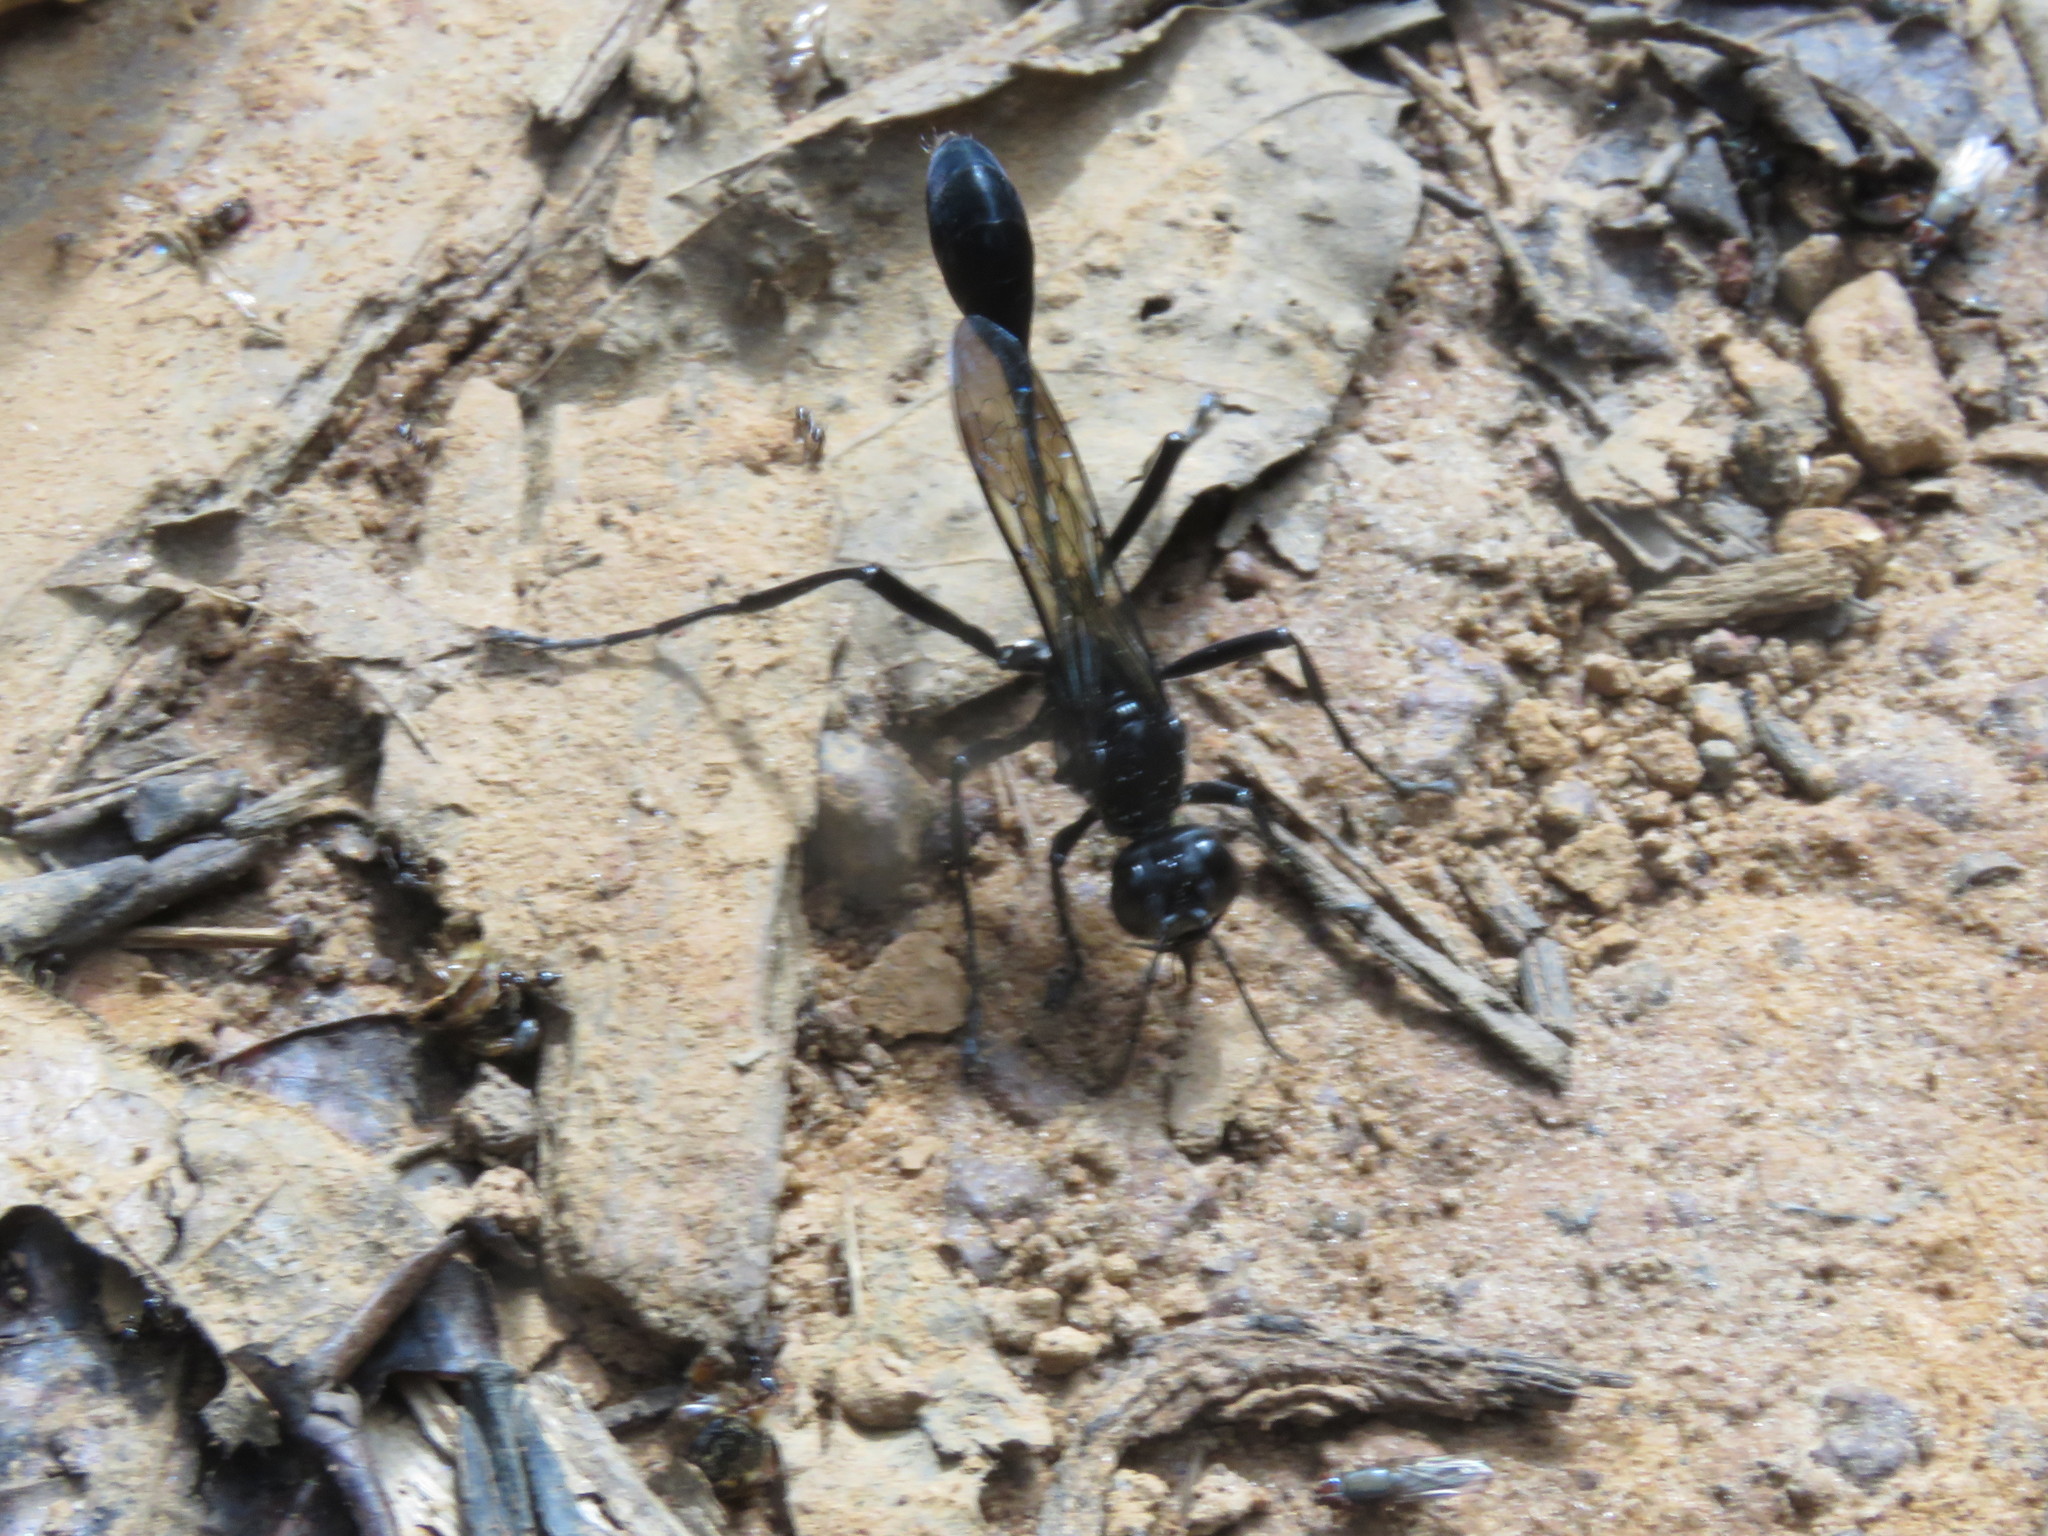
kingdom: Animalia
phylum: Arthropoda
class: Insecta
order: Hymenoptera
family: Sphecidae
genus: Eremnophila
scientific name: Eremnophila opulenta
